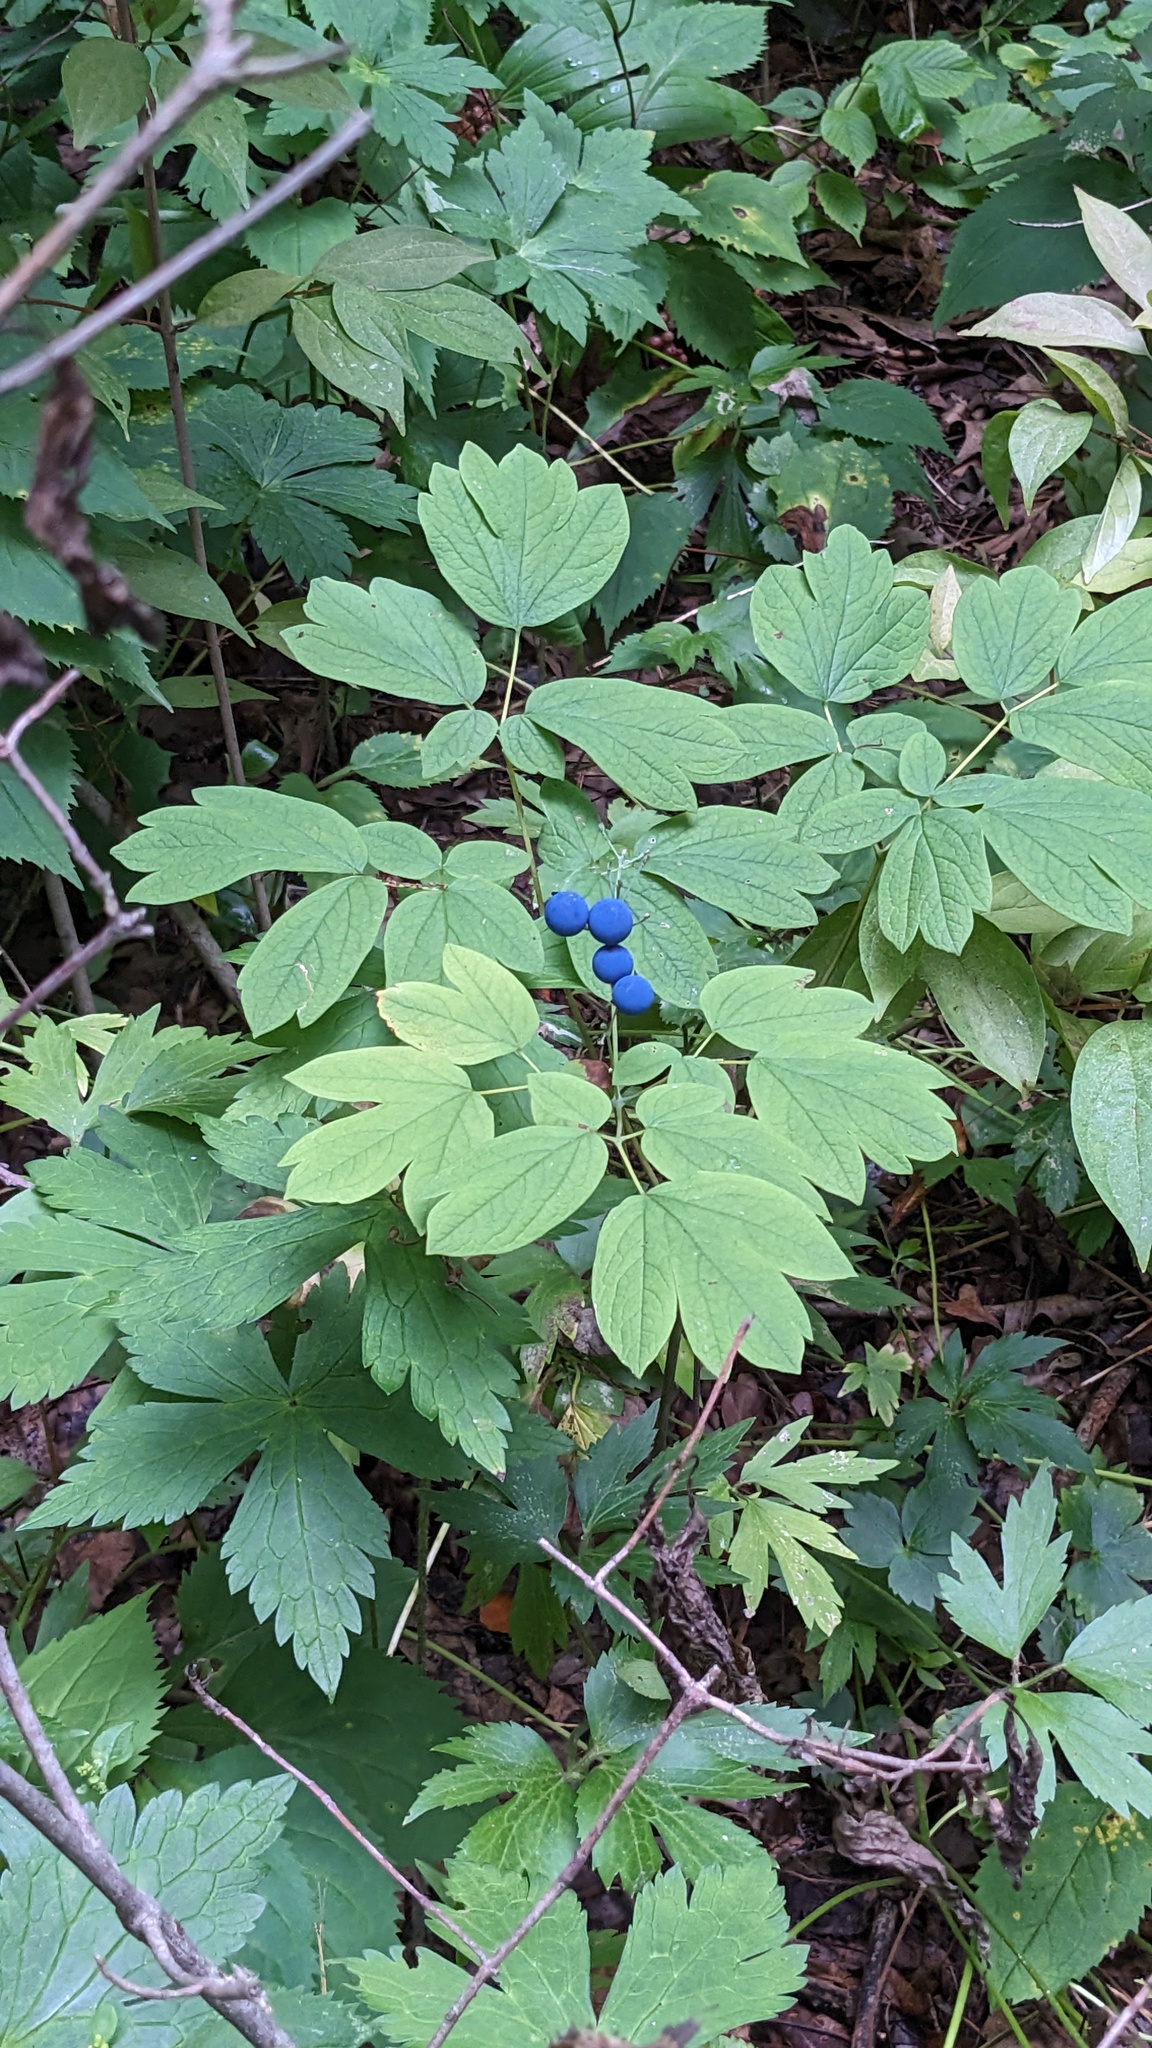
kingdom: Plantae
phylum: Tracheophyta
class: Magnoliopsida
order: Ranunculales
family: Berberidaceae
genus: Caulophyllum
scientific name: Caulophyllum thalictroides
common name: Blue cohosh
